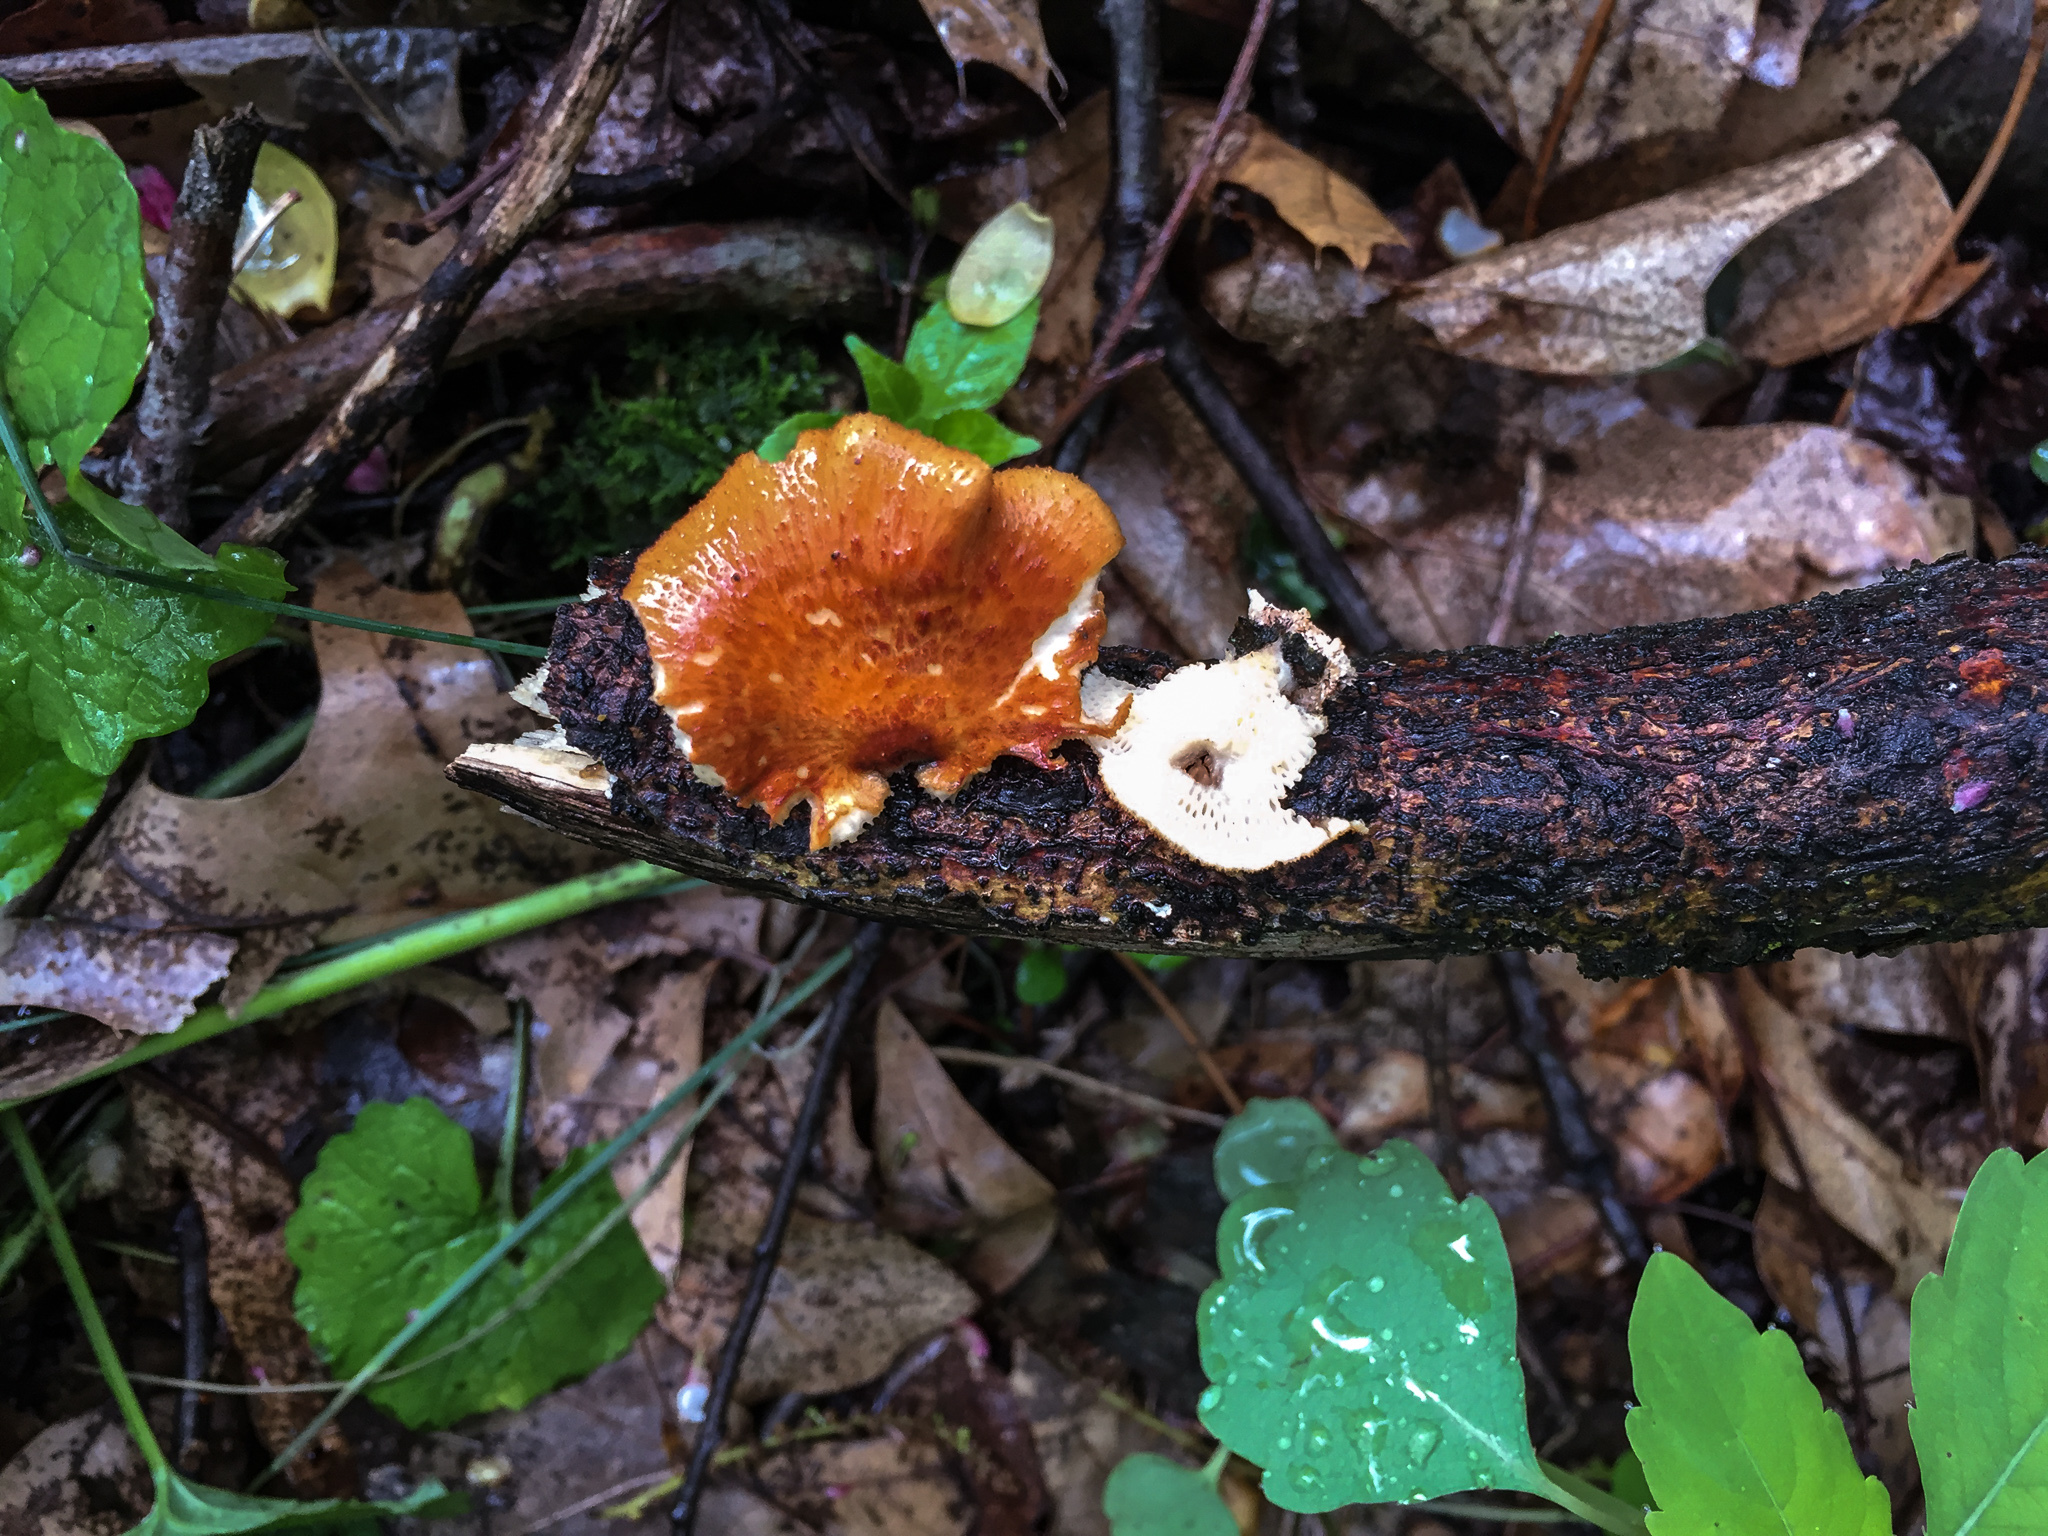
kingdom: Fungi
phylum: Basidiomycota
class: Agaricomycetes
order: Polyporales
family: Polyporaceae
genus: Neofavolus
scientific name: Neofavolus alveolaris
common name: Hexagonal-pored polypore
